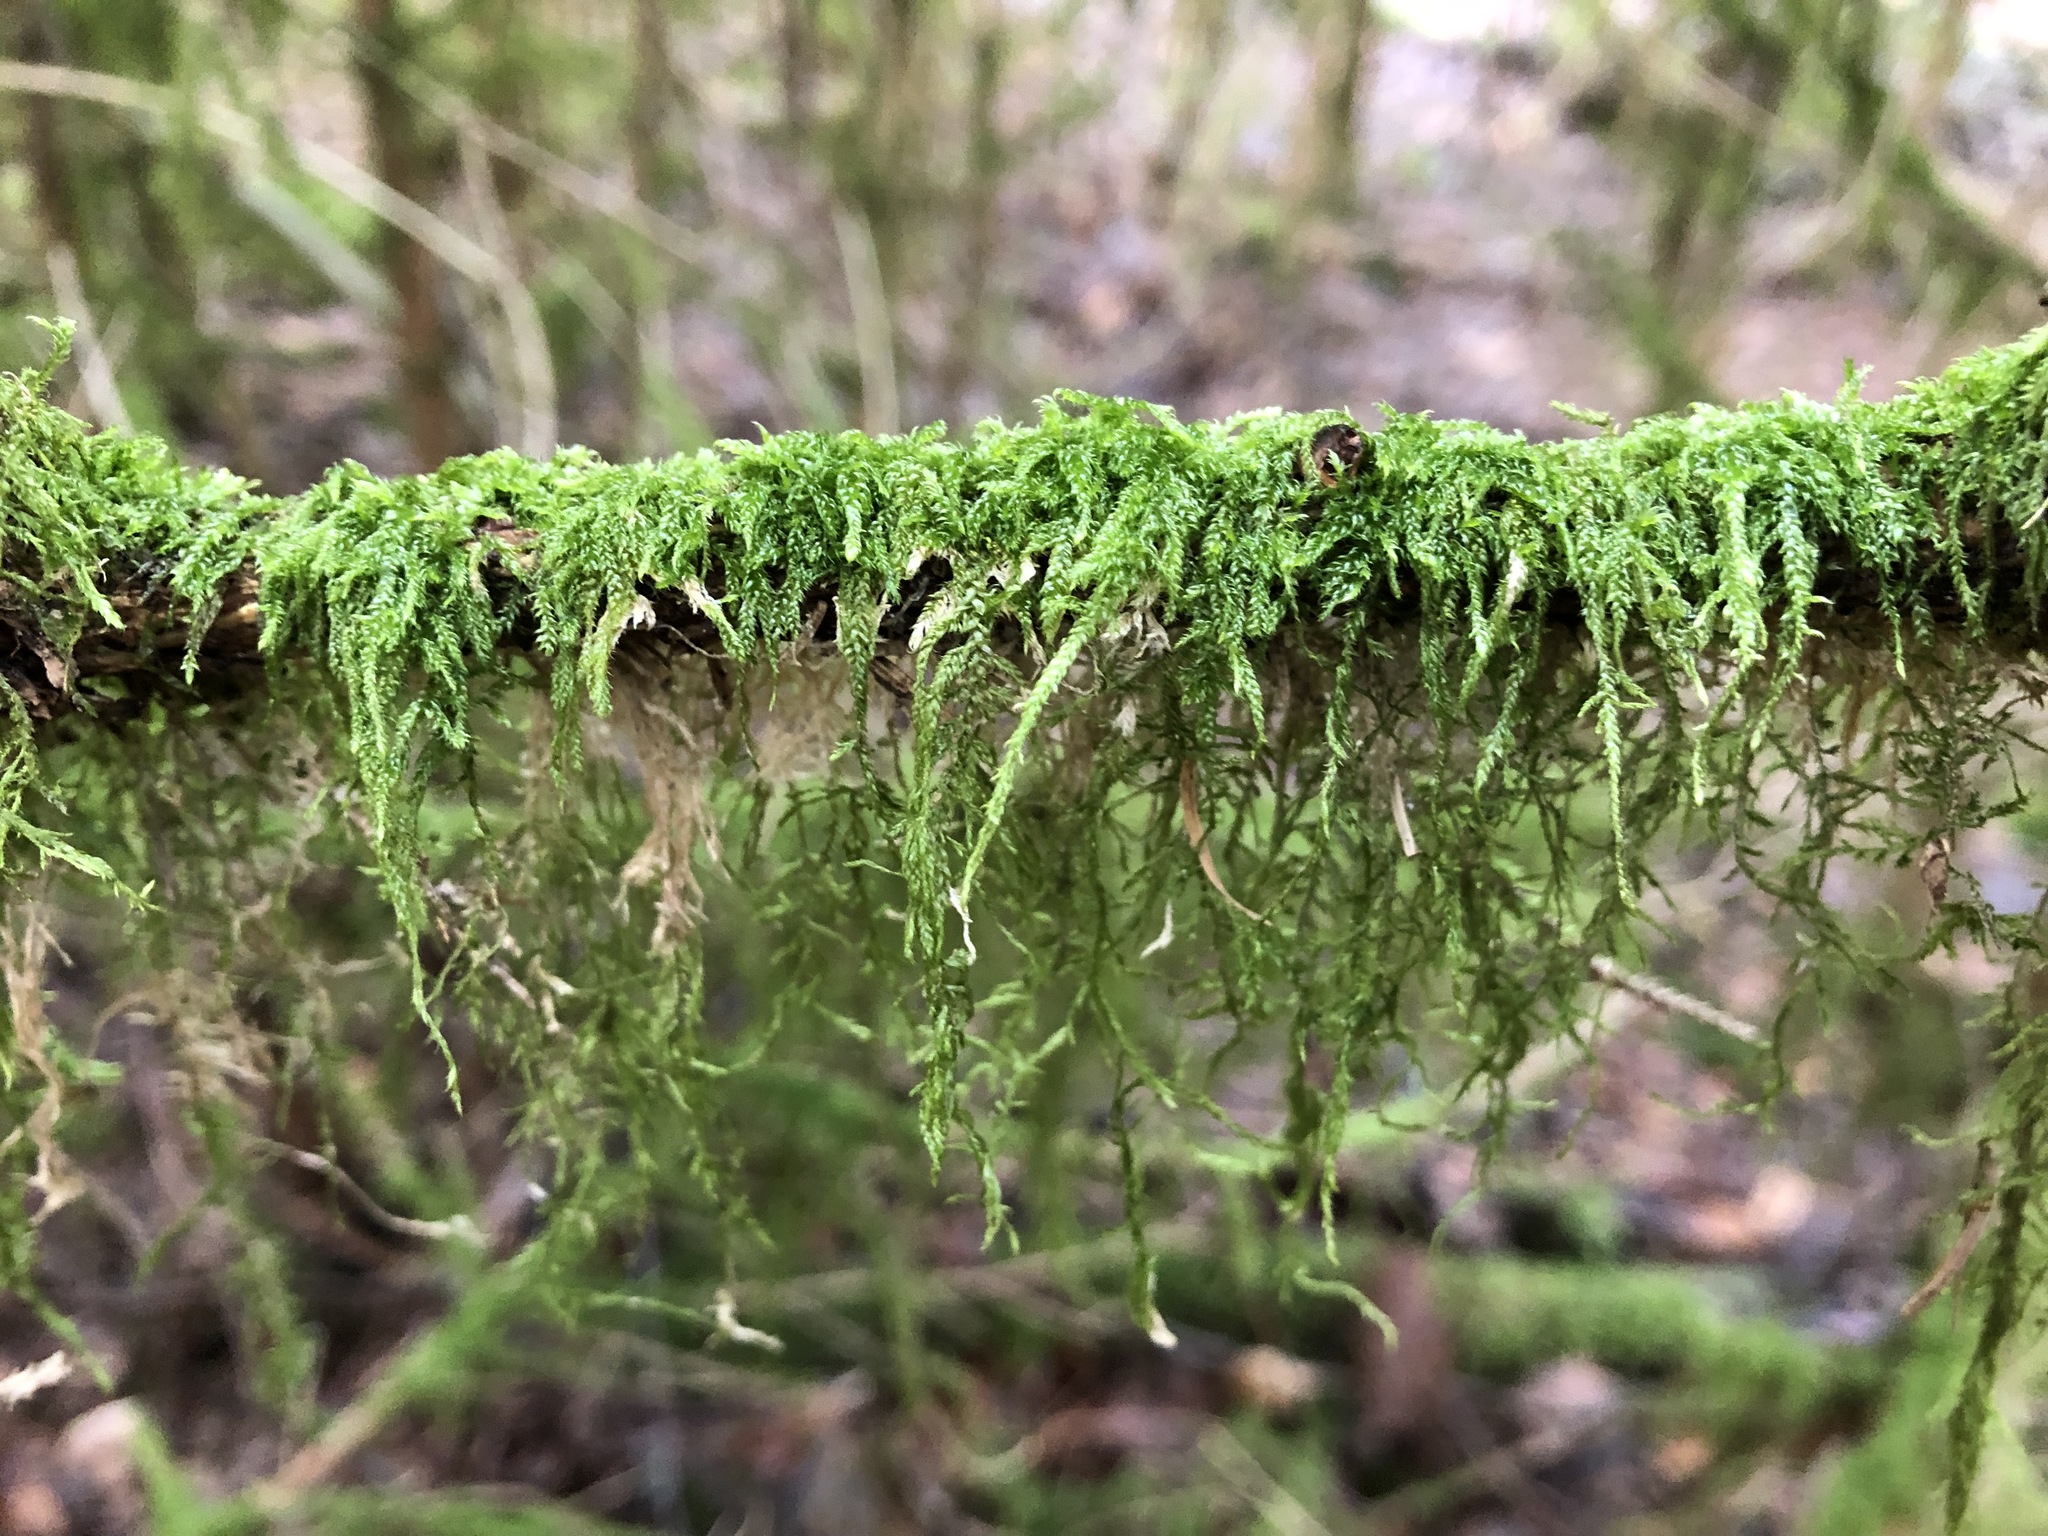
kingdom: Plantae
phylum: Bryophyta
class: Bryopsida
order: Hypnales
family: Hypnaceae
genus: Hypnum
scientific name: Hypnum cupressiforme
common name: Cypress-leaved plait-moss
